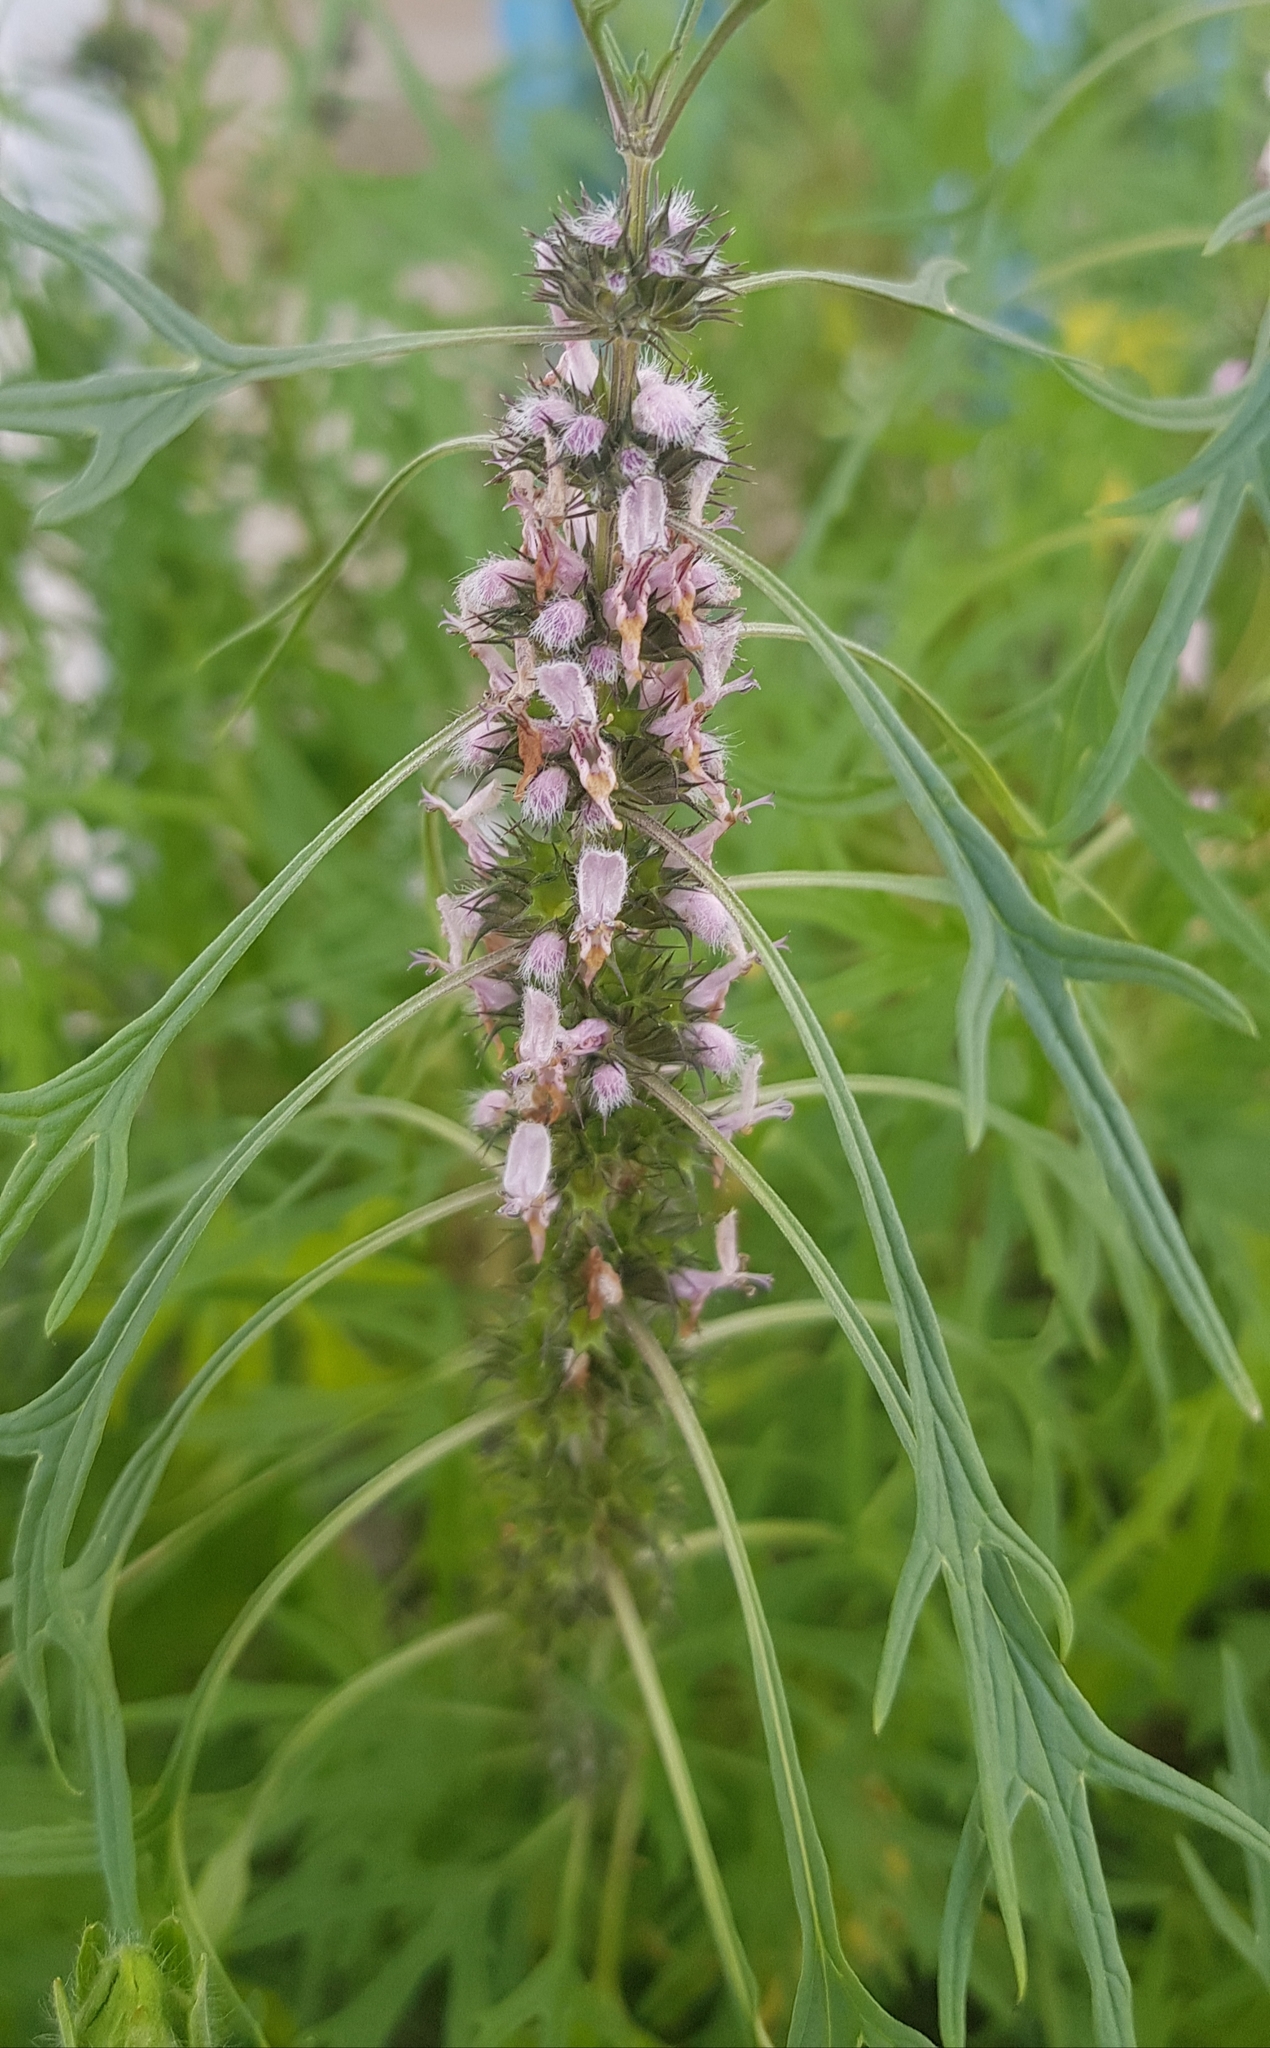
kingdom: Plantae
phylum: Tracheophyta
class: Magnoliopsida
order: Lamiales
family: Lamiaceae
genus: Leonurus
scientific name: Leonurus deminutus
